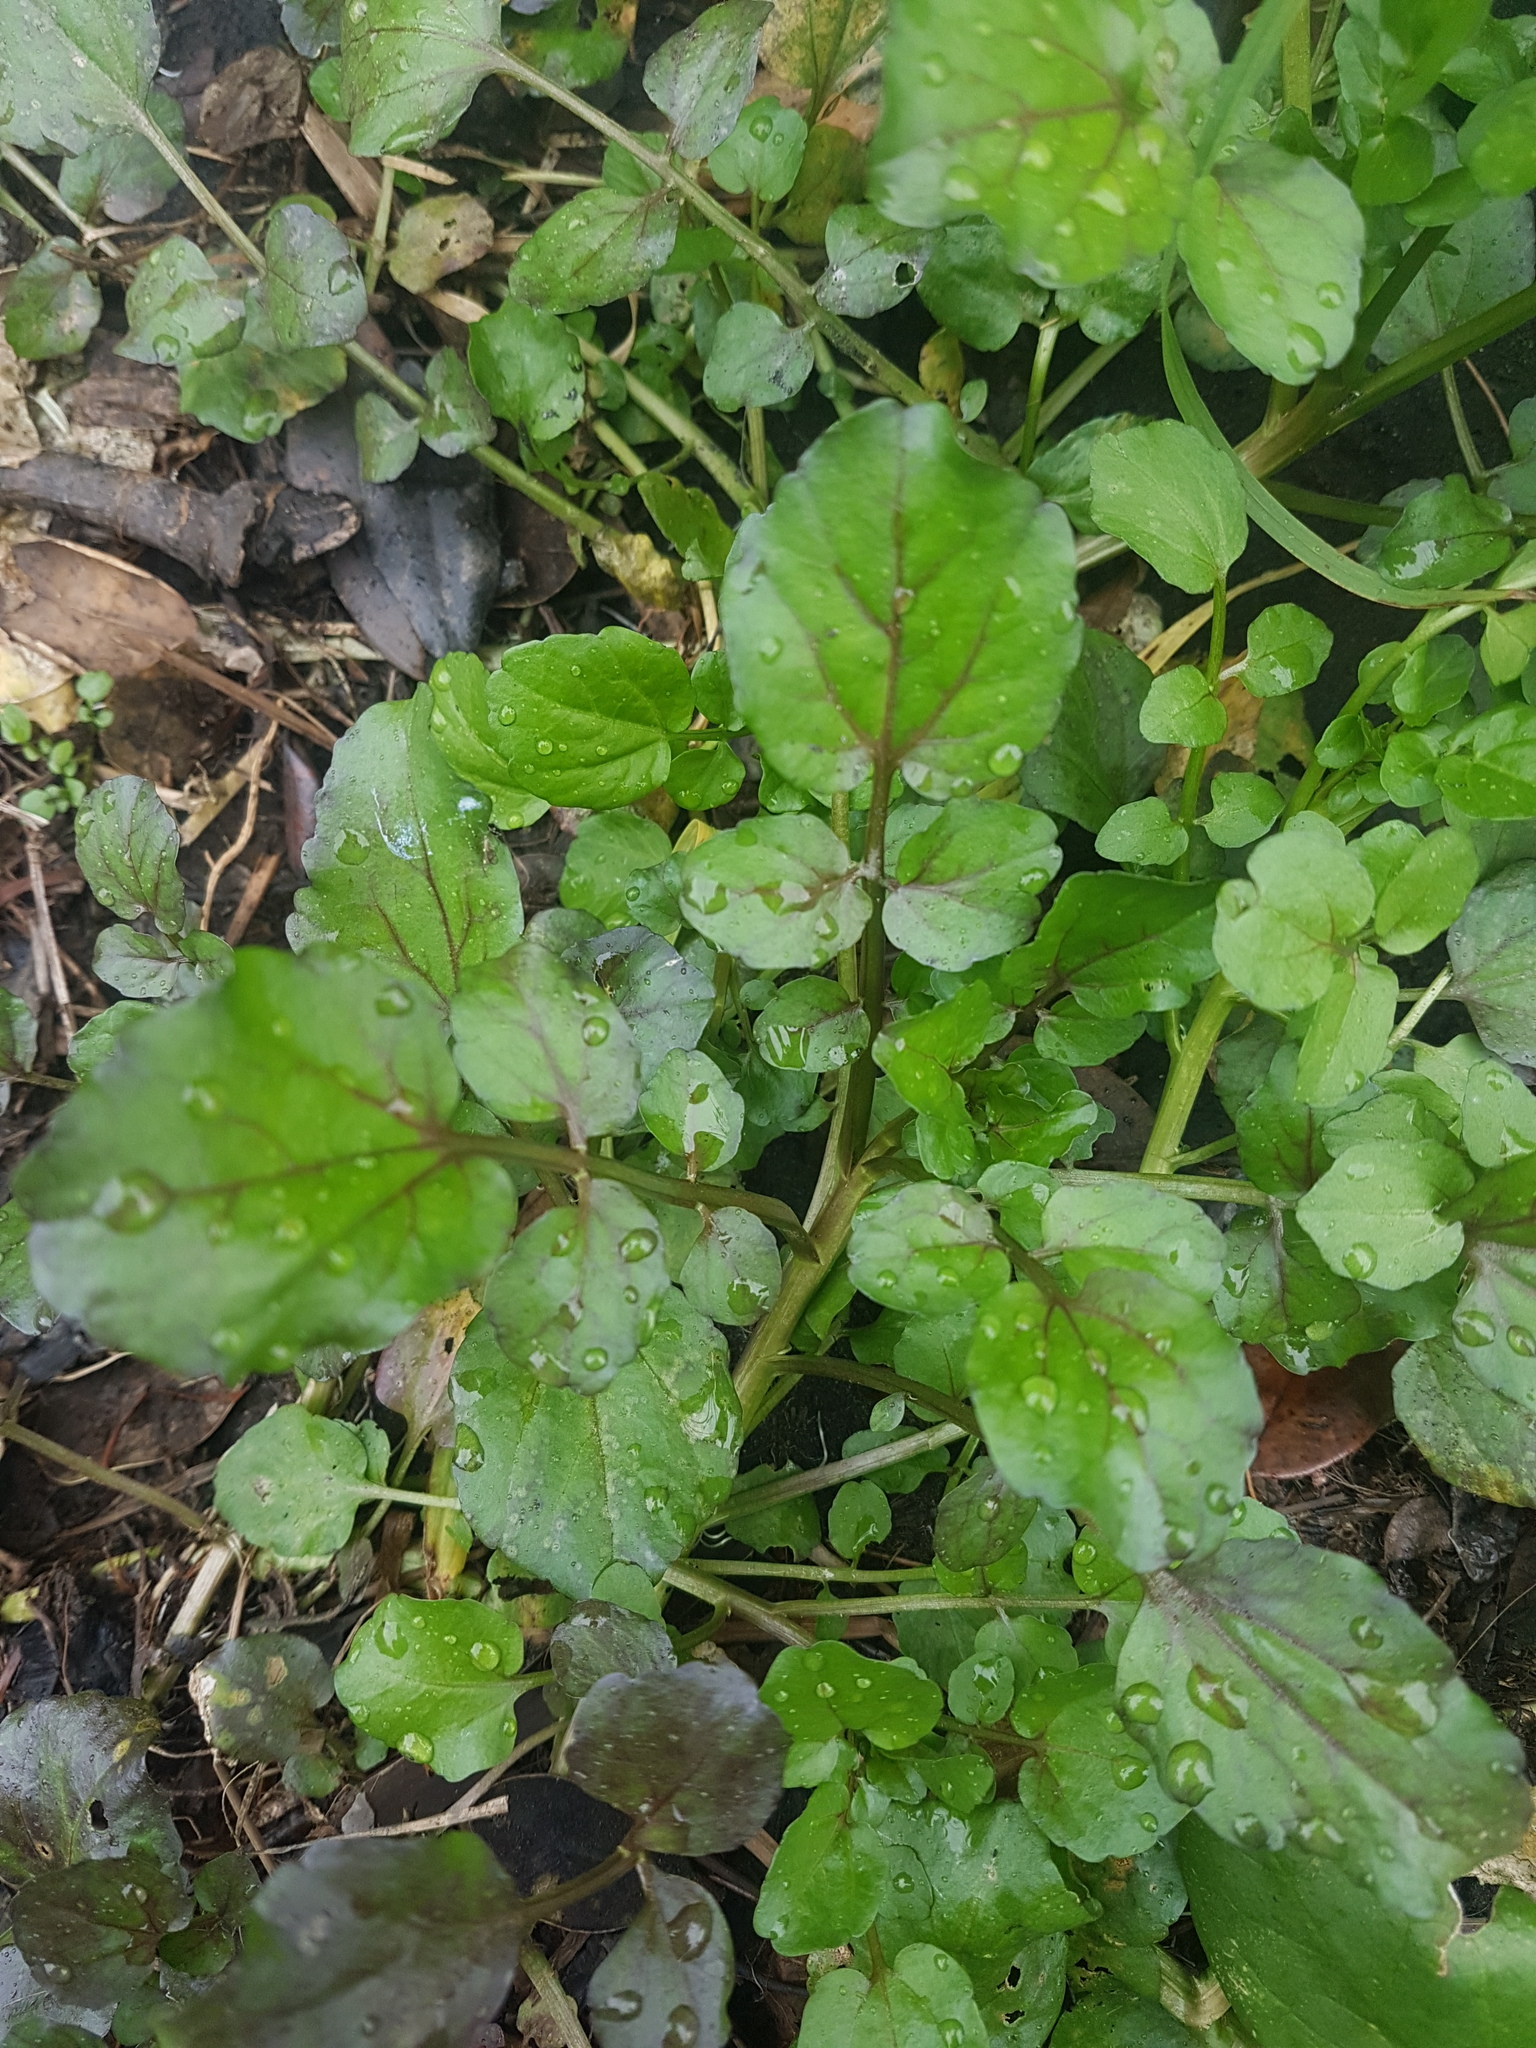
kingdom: Plantae
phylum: Tracheophyta
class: Magnoliopsida
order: Brassicales
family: Brassicaceae
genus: Nasturtium
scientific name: Nasturtium officinale
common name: Watercress
